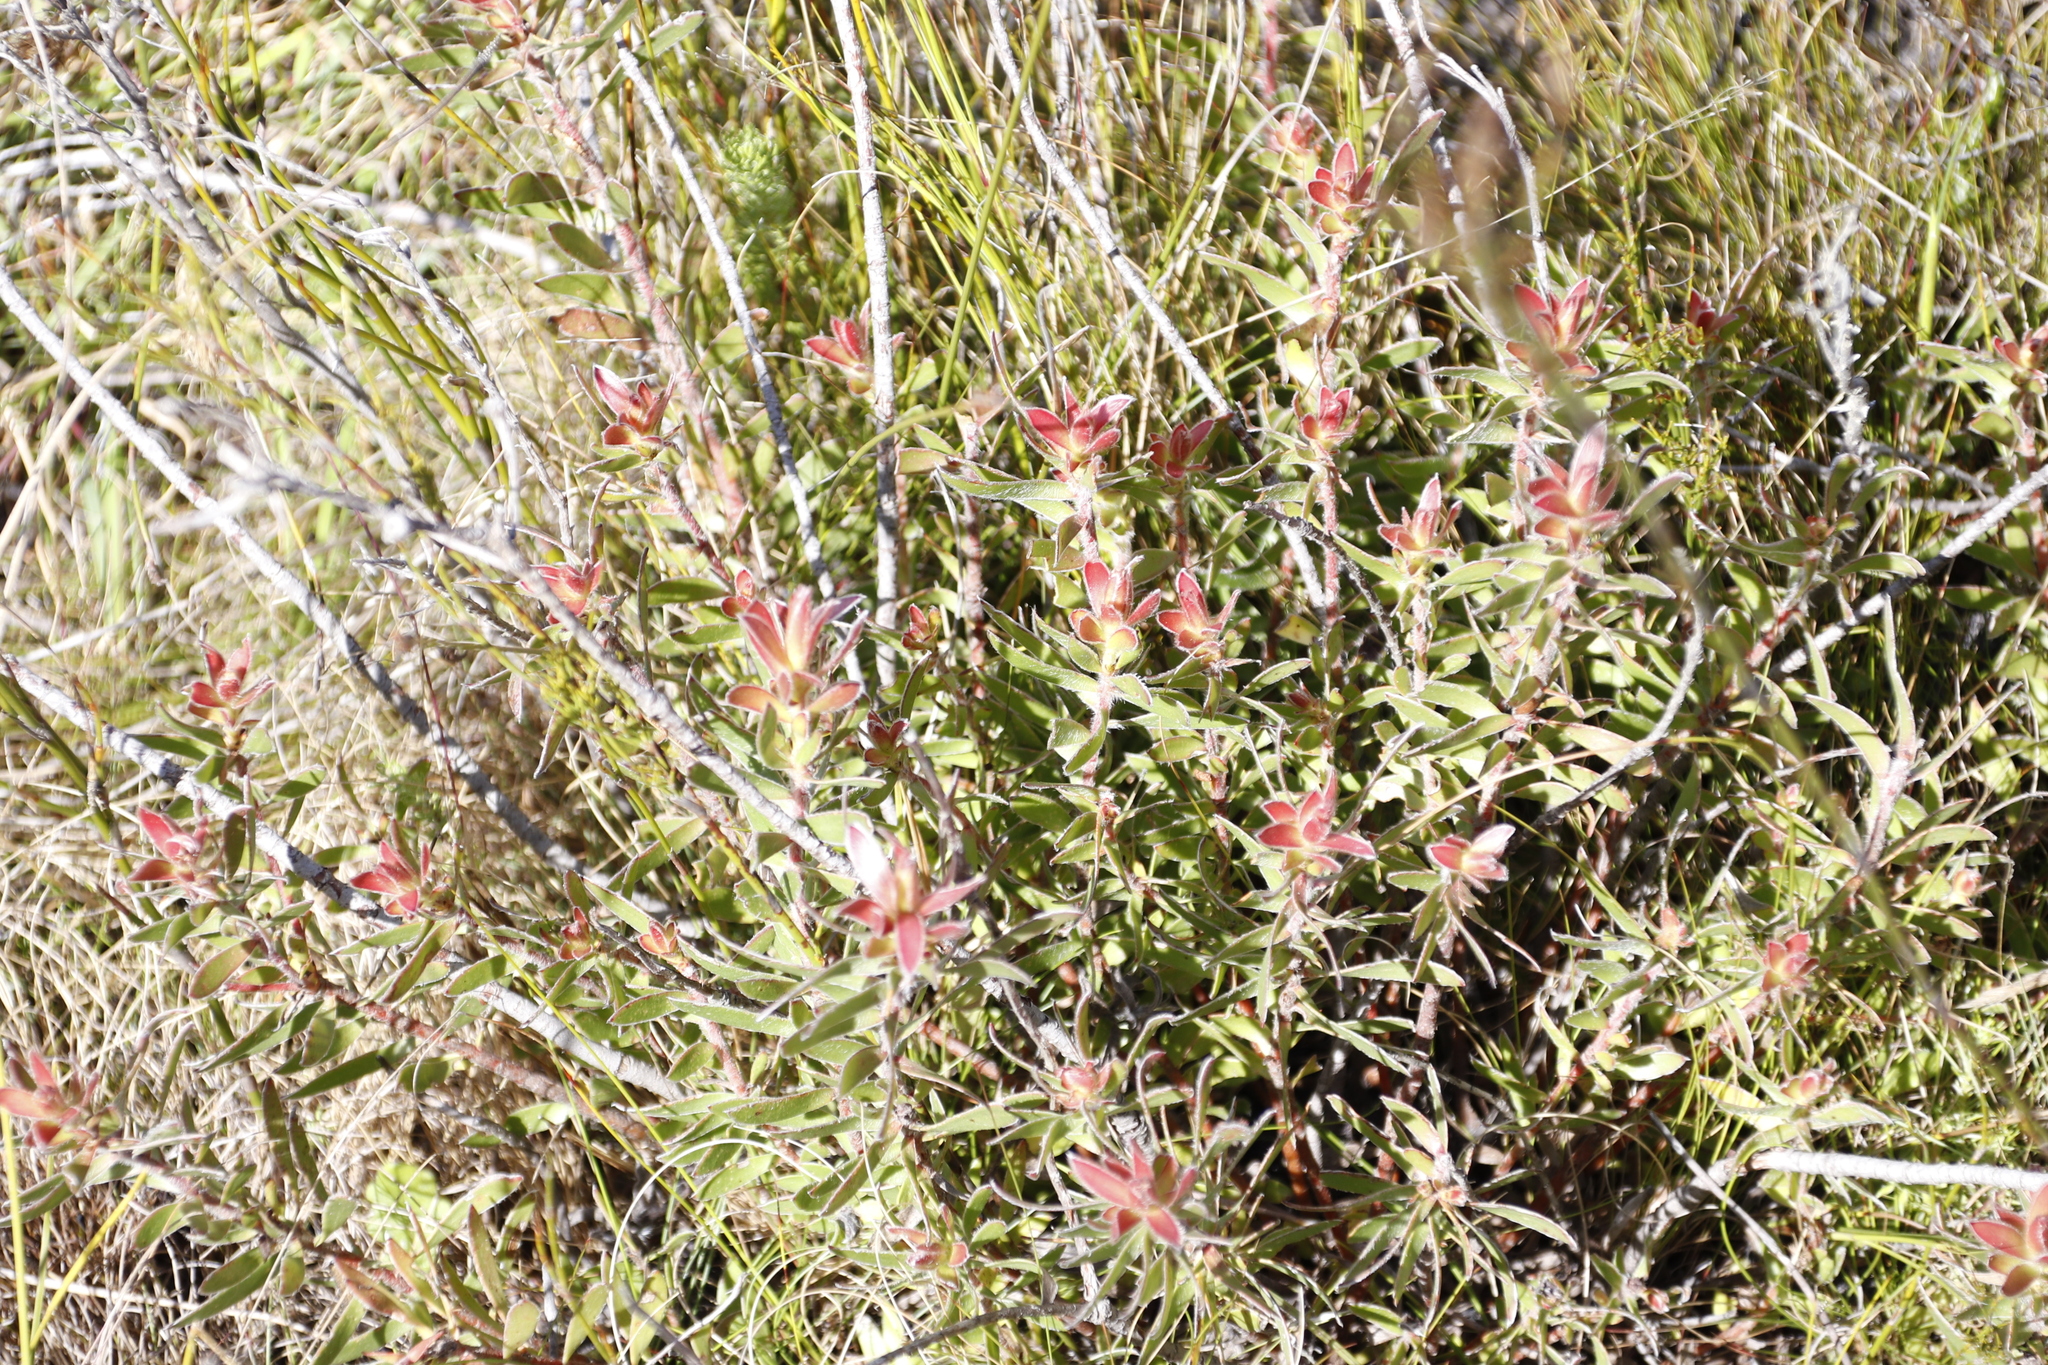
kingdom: Plantae
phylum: Tracheophyta
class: Magnoliopsida
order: Proteales
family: Proteaceae
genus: Leucadendron
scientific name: Leucadendron spissifolium
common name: Spear-leaf conebush
